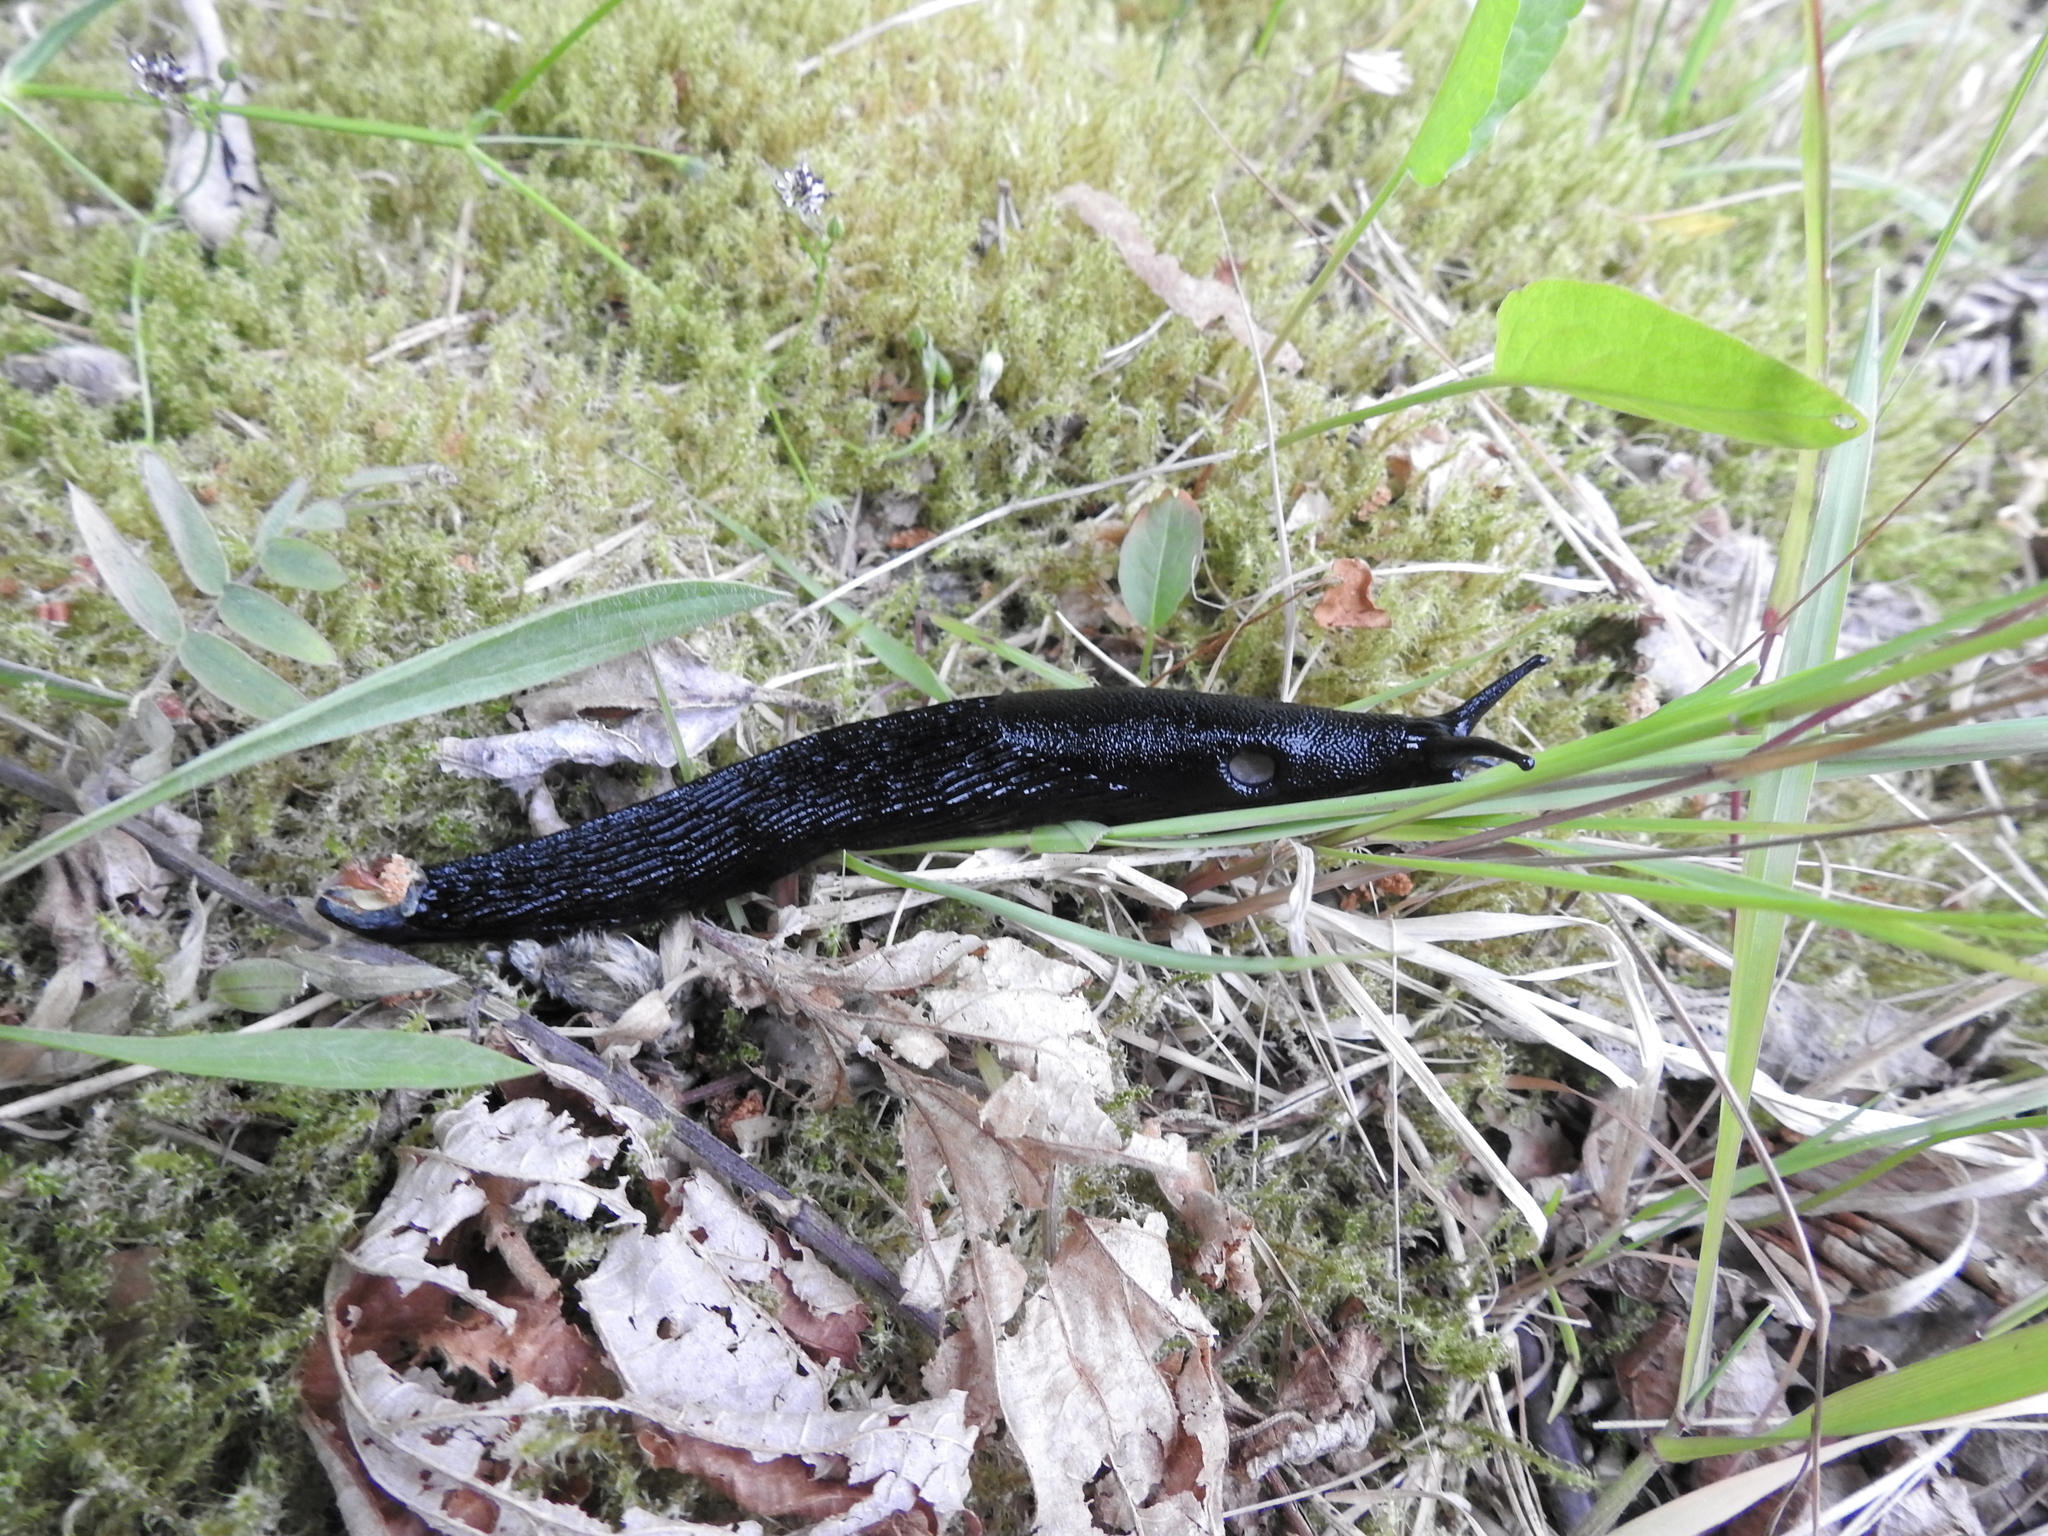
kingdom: Animalia
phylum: Mollusca
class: Gastropoda
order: Stylommatophora
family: Arionidae
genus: Arion
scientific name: Arion ater
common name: Black arion
